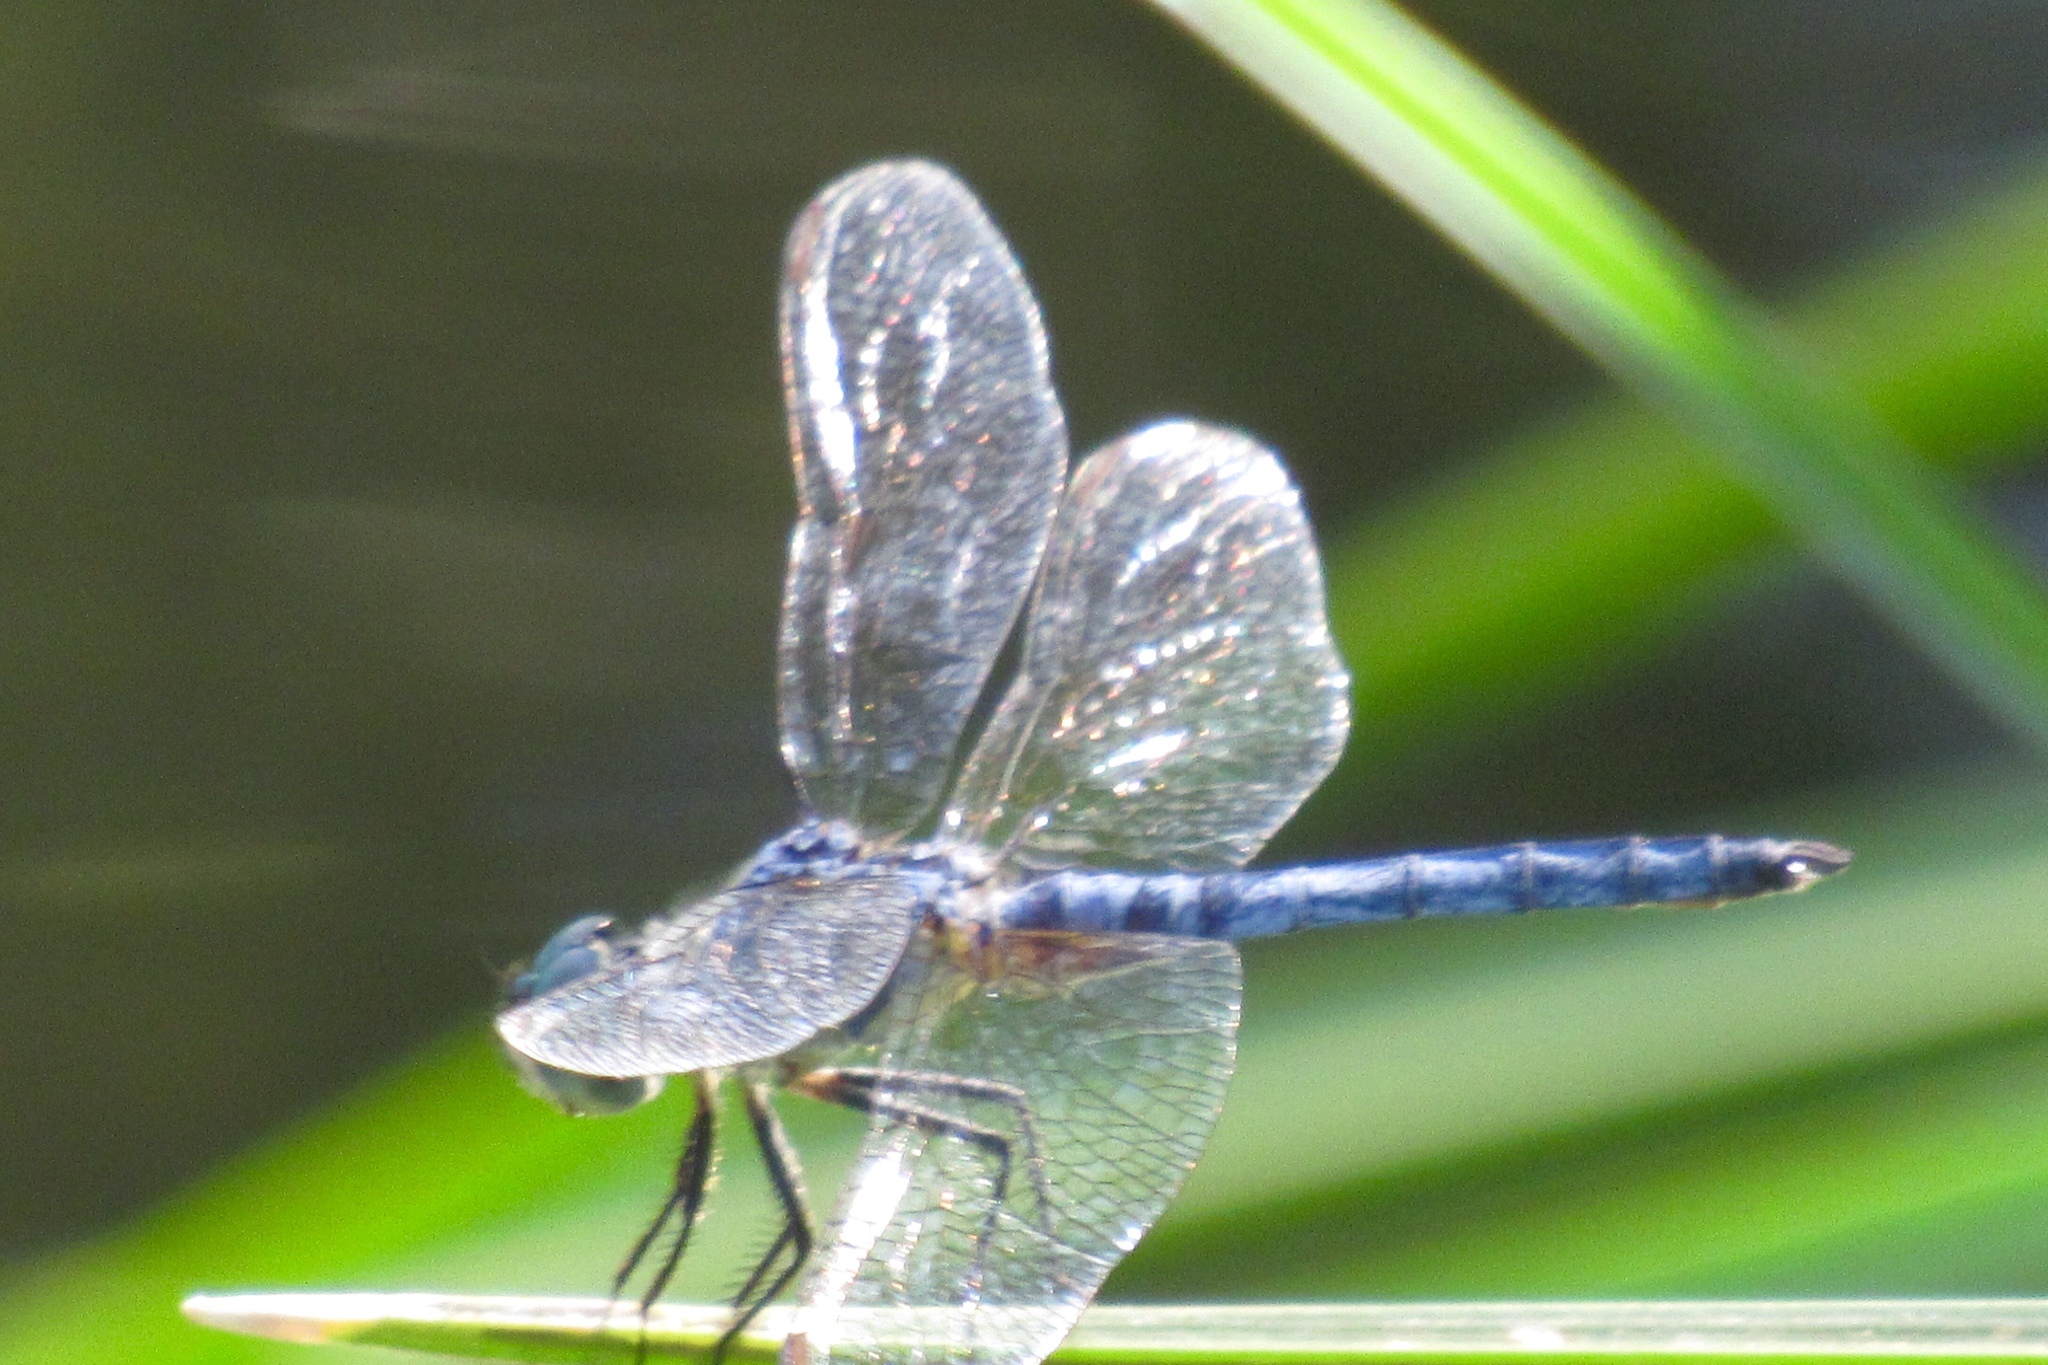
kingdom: Animalia
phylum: Arthropoda
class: Insecta
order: Odonata
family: Libellulidae
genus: Pachydiplax
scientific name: Pachydiplax longipennis
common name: Blue dasher
